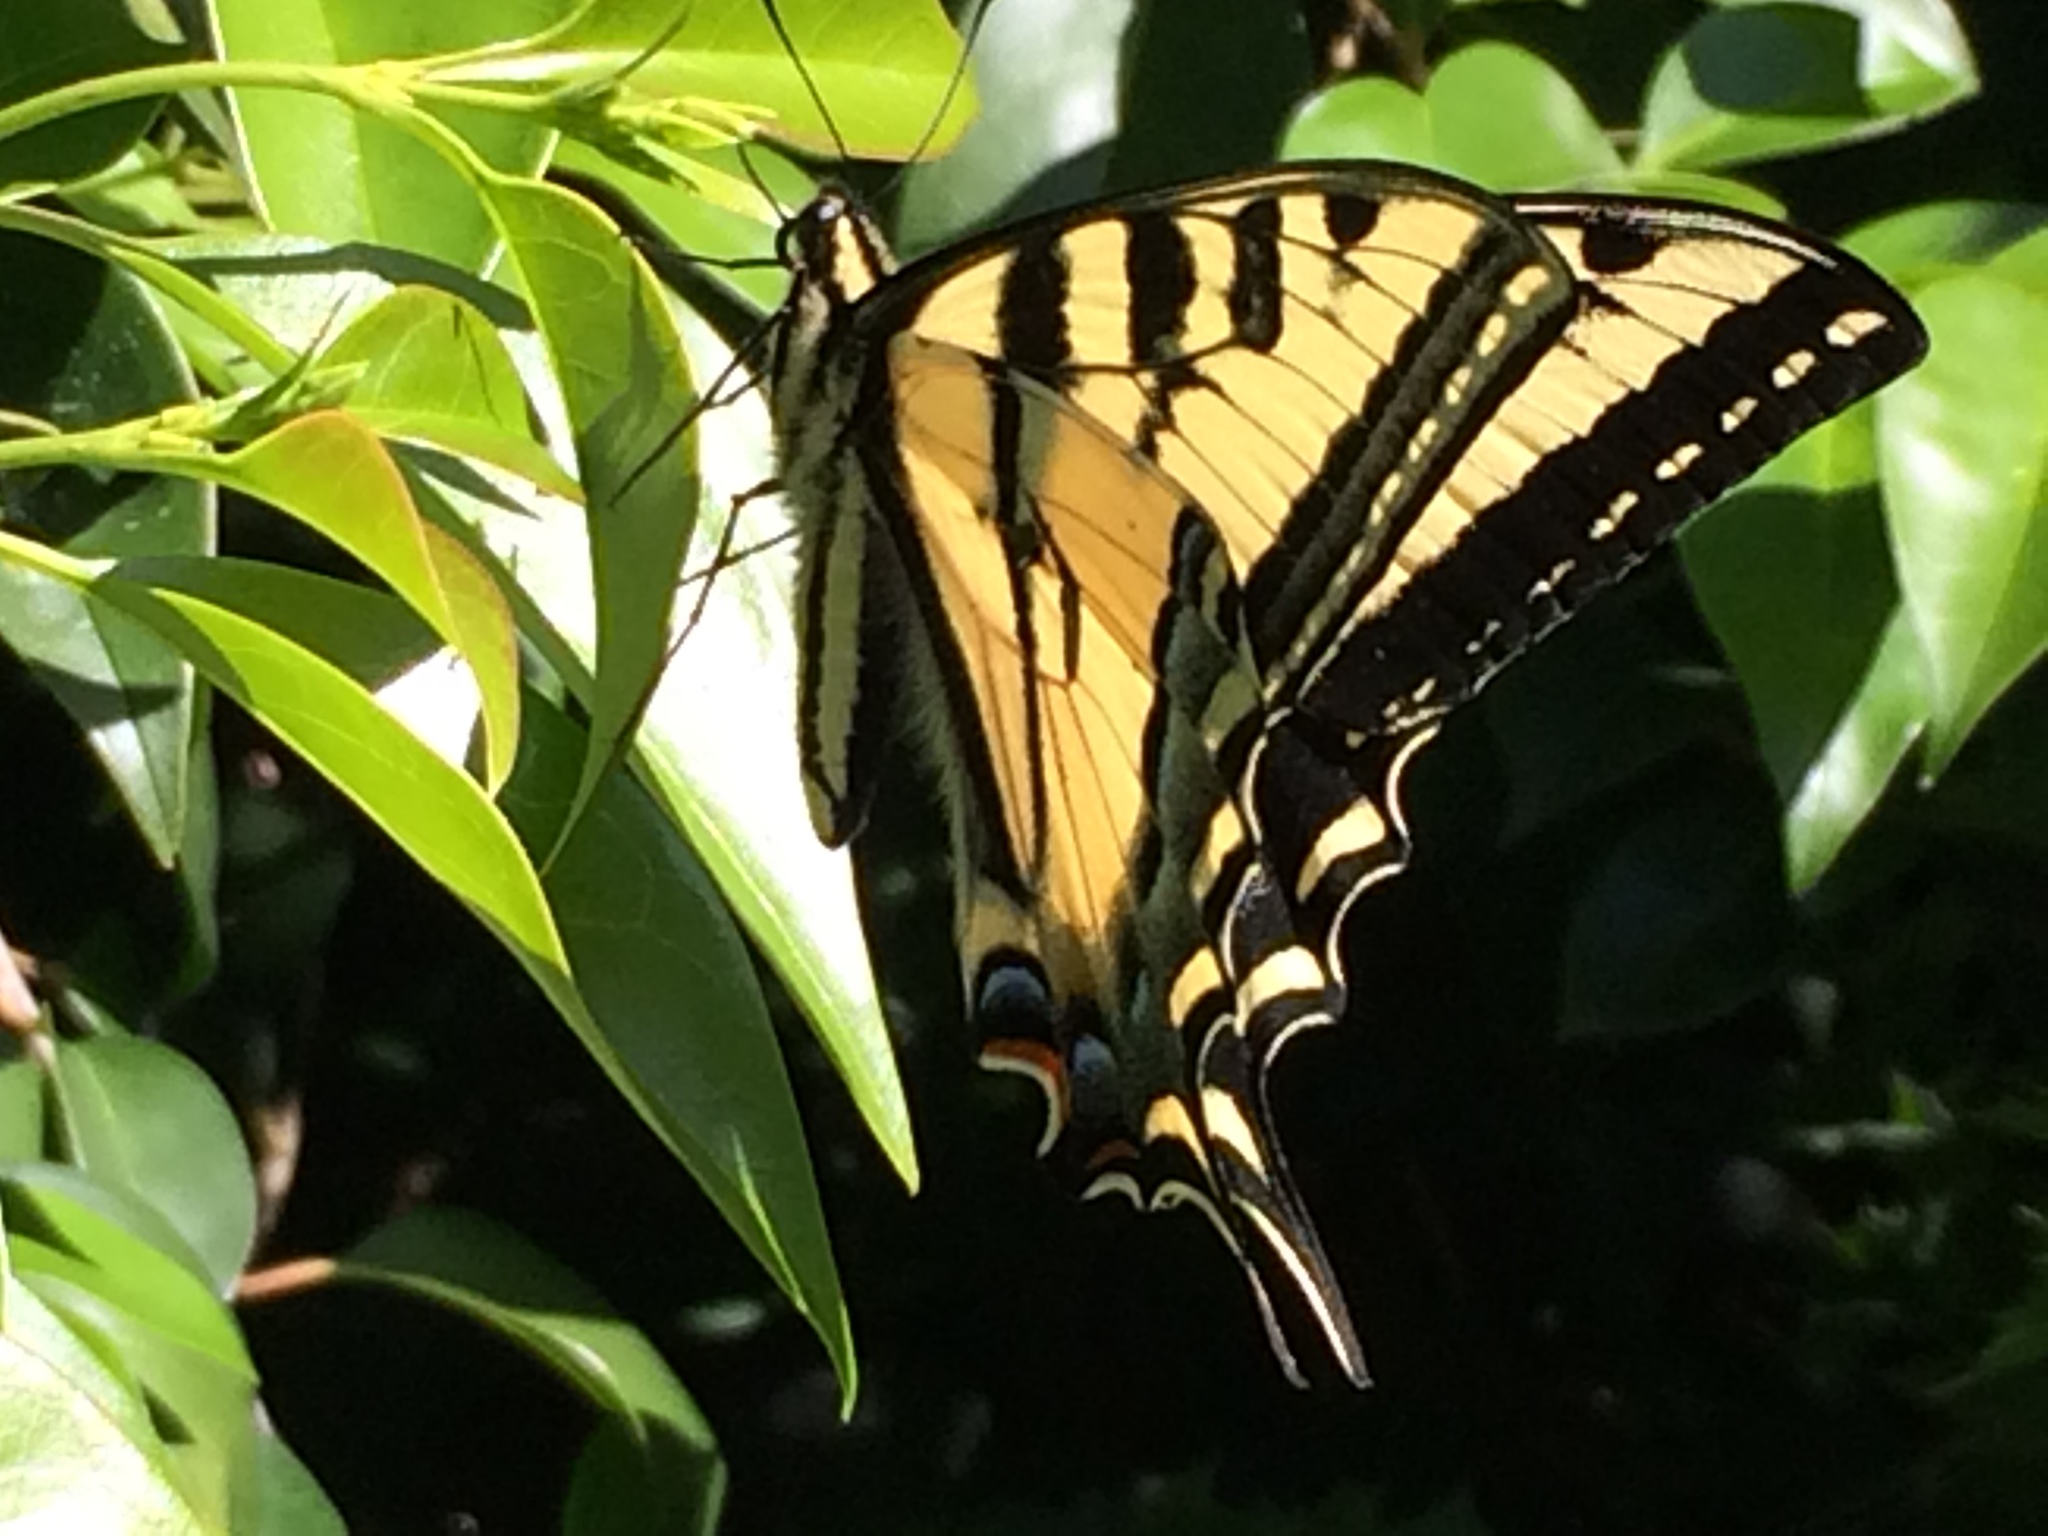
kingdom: Animalia
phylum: Arthropoda
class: Insecta
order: Lepidoptera
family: Papilionidae
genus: Papilio
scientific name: Papilio rutulus
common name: Western tiger swallowtail
